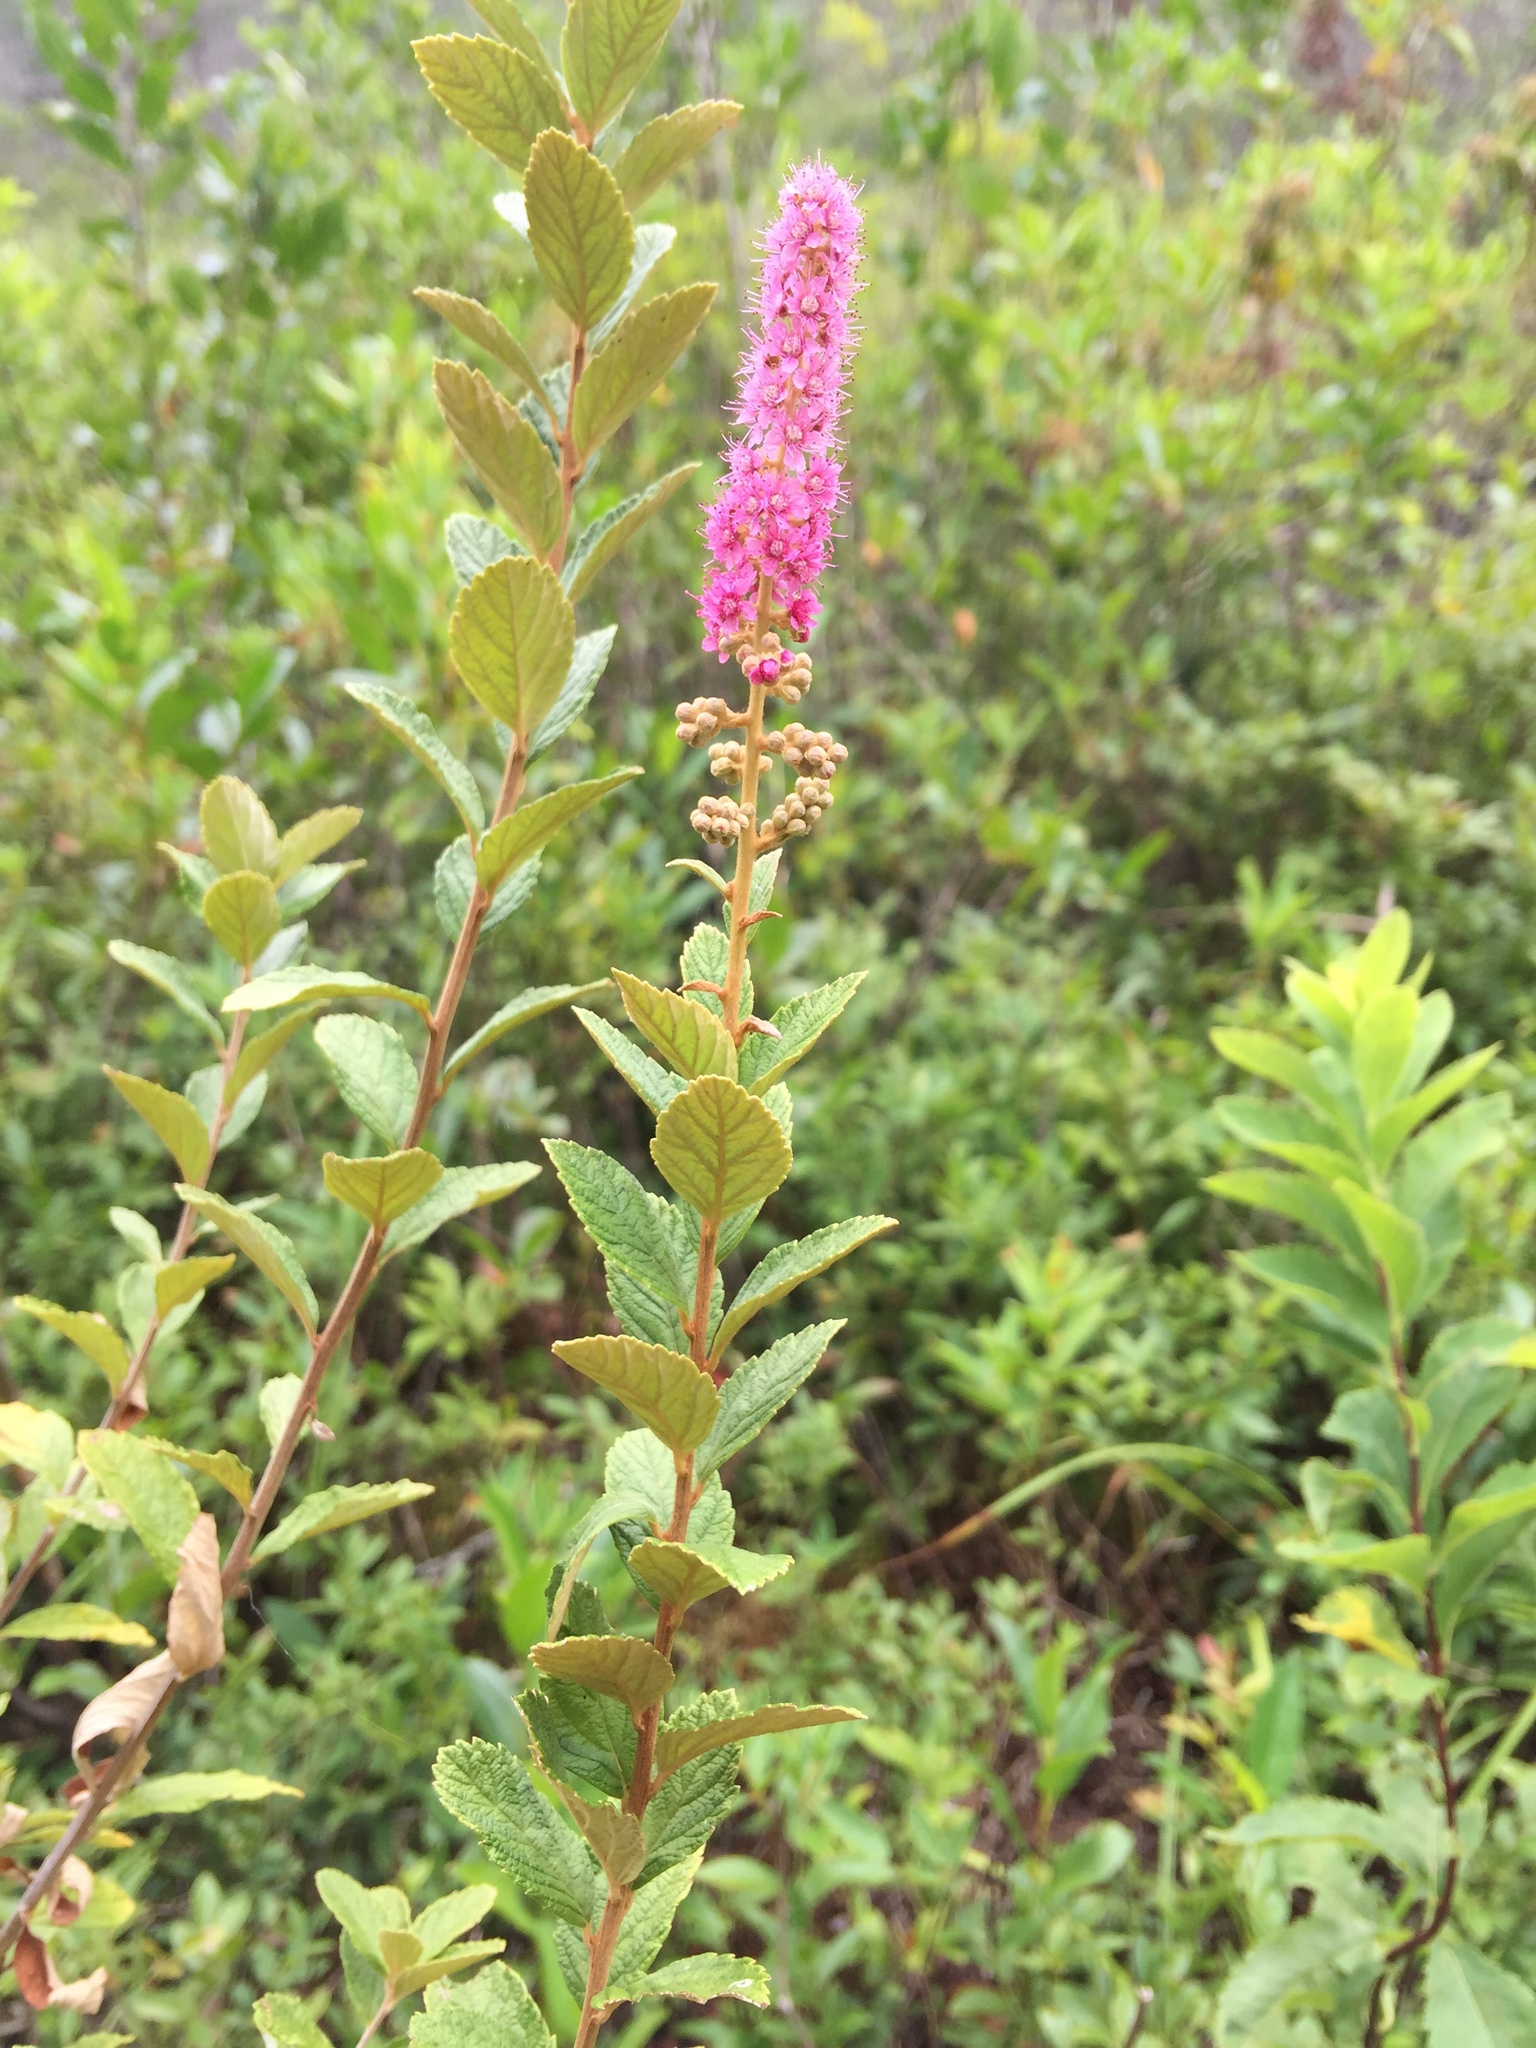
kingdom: Plantae
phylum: Tracheophyta
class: Magnoliopsida
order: Rosales
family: Rosaceae
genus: Spiraea
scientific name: Spiraea tomentosa
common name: Hardhack
